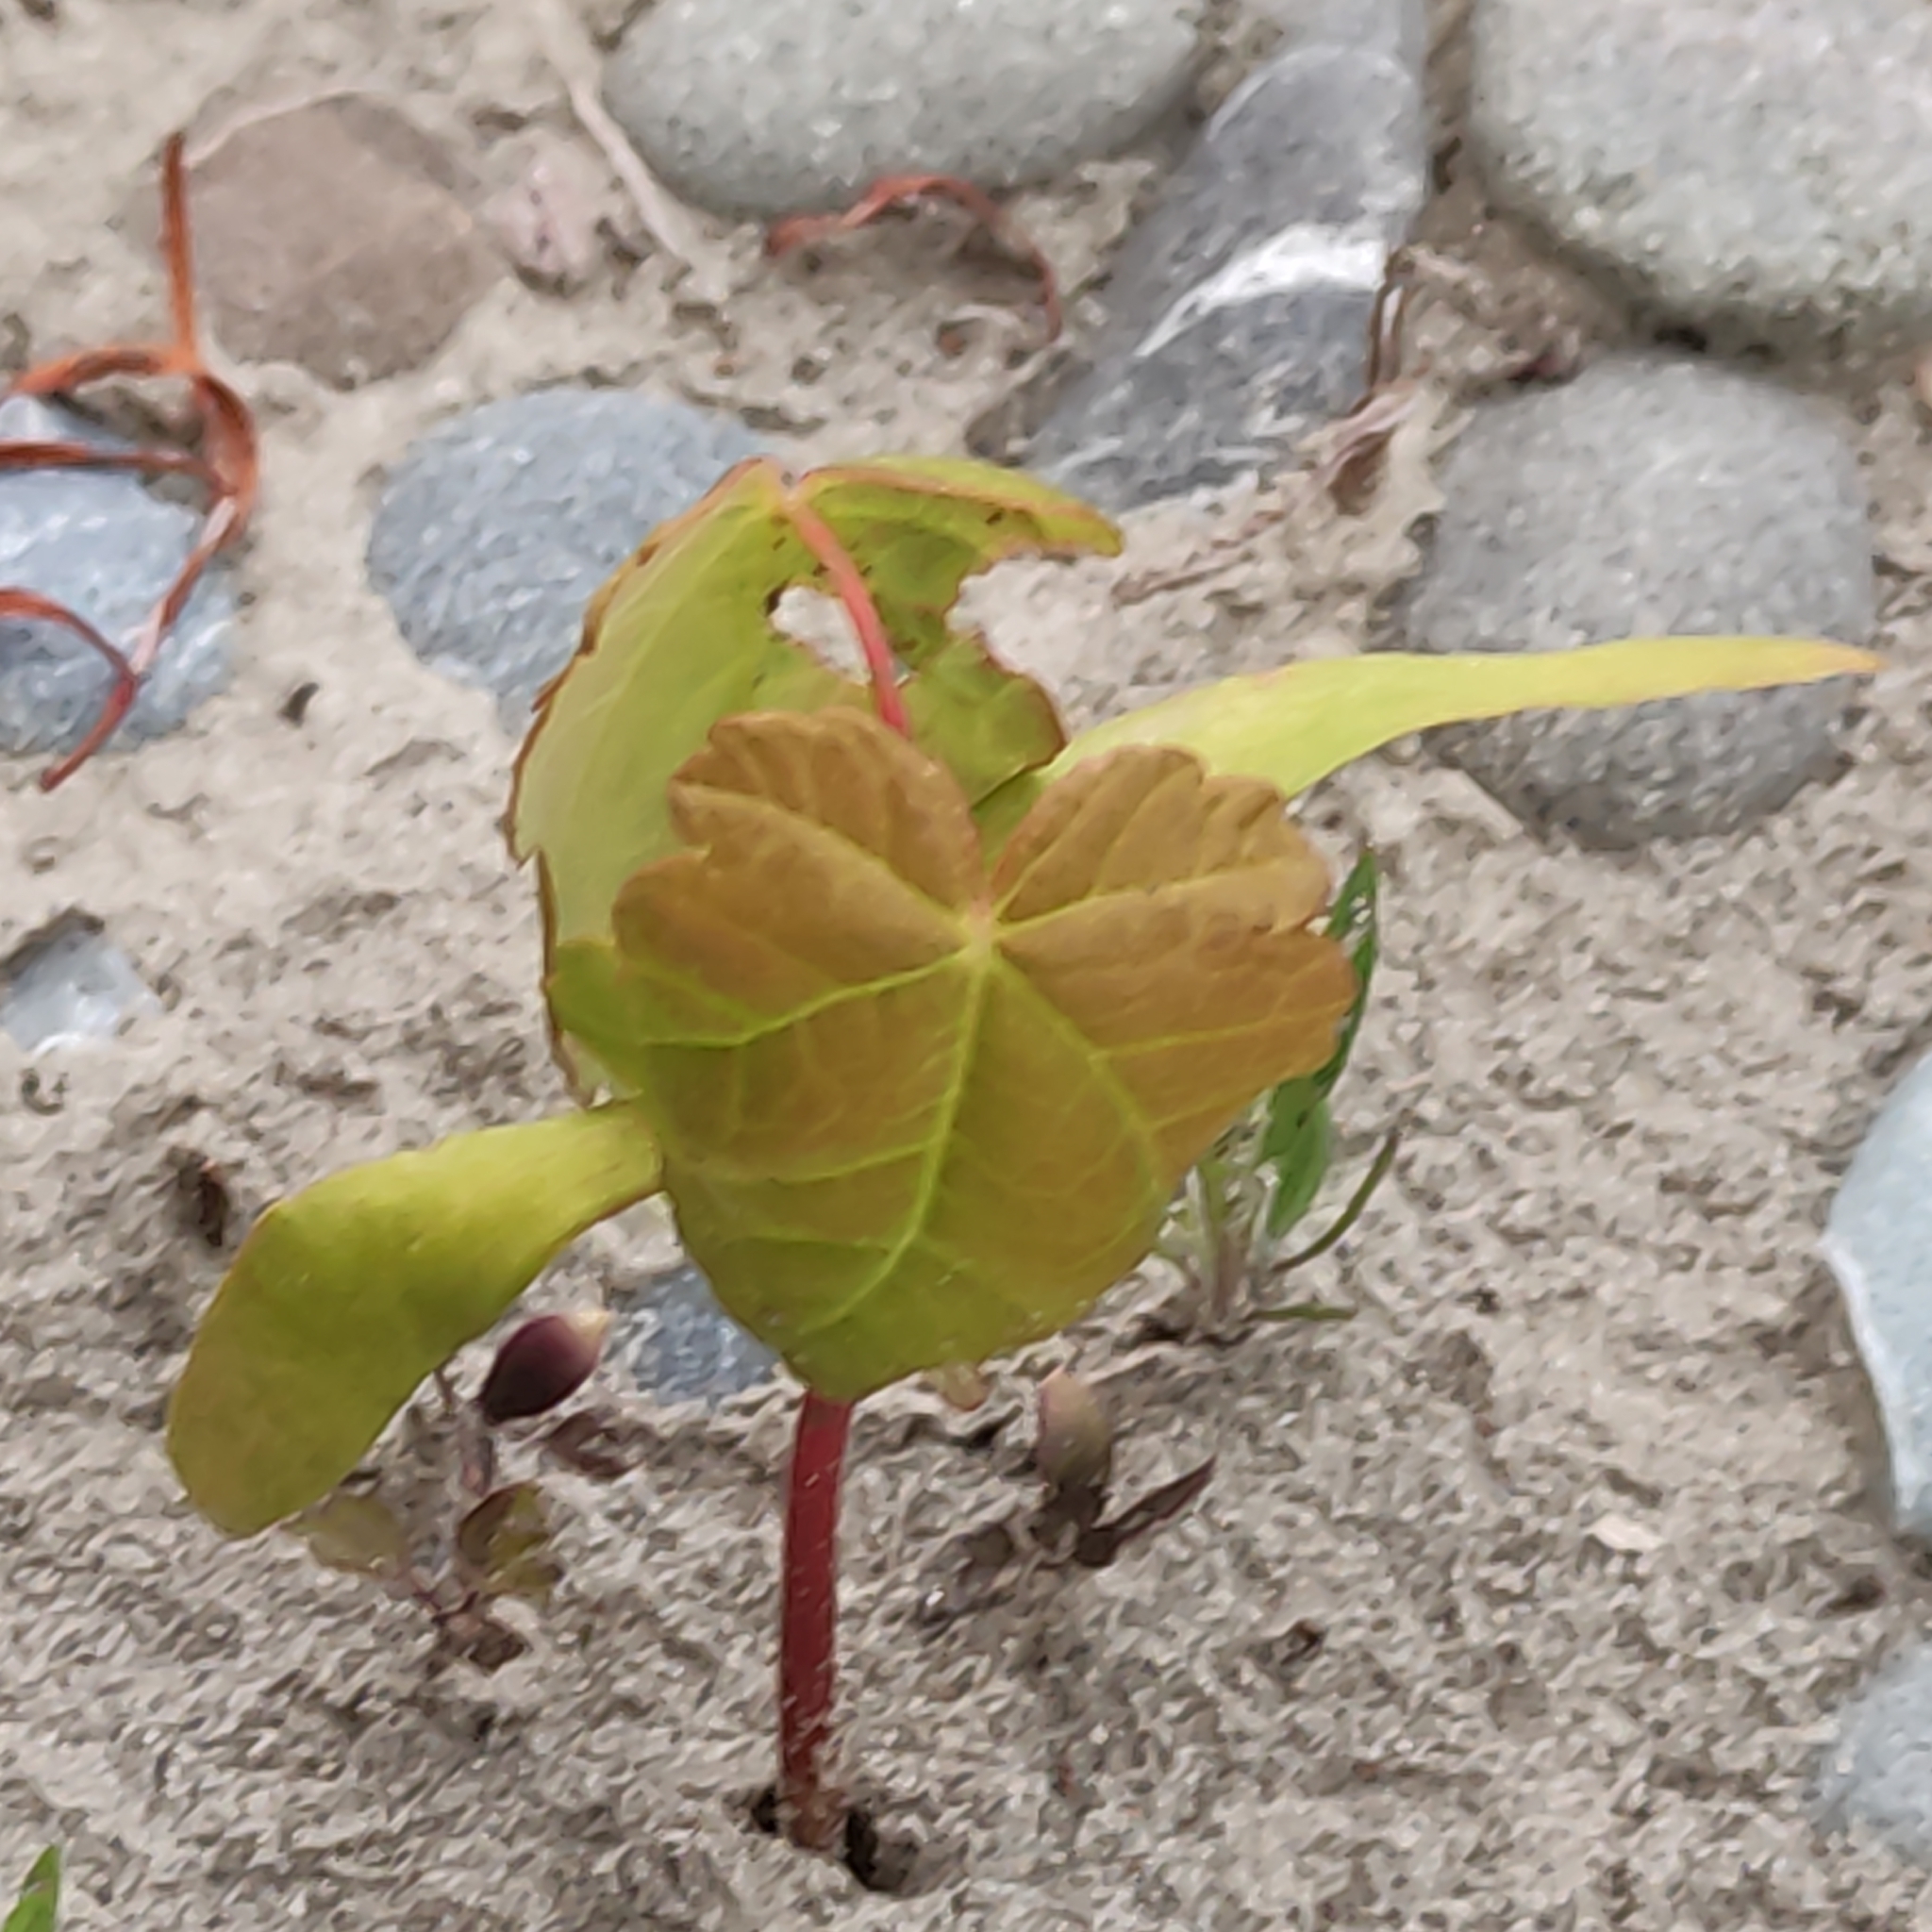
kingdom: Plantae
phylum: Tracheophyta
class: Magnoliopsida
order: Sapindales
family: Sapindaceae
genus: Acer
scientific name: Acer pseudoplatanus
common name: Sycamore
